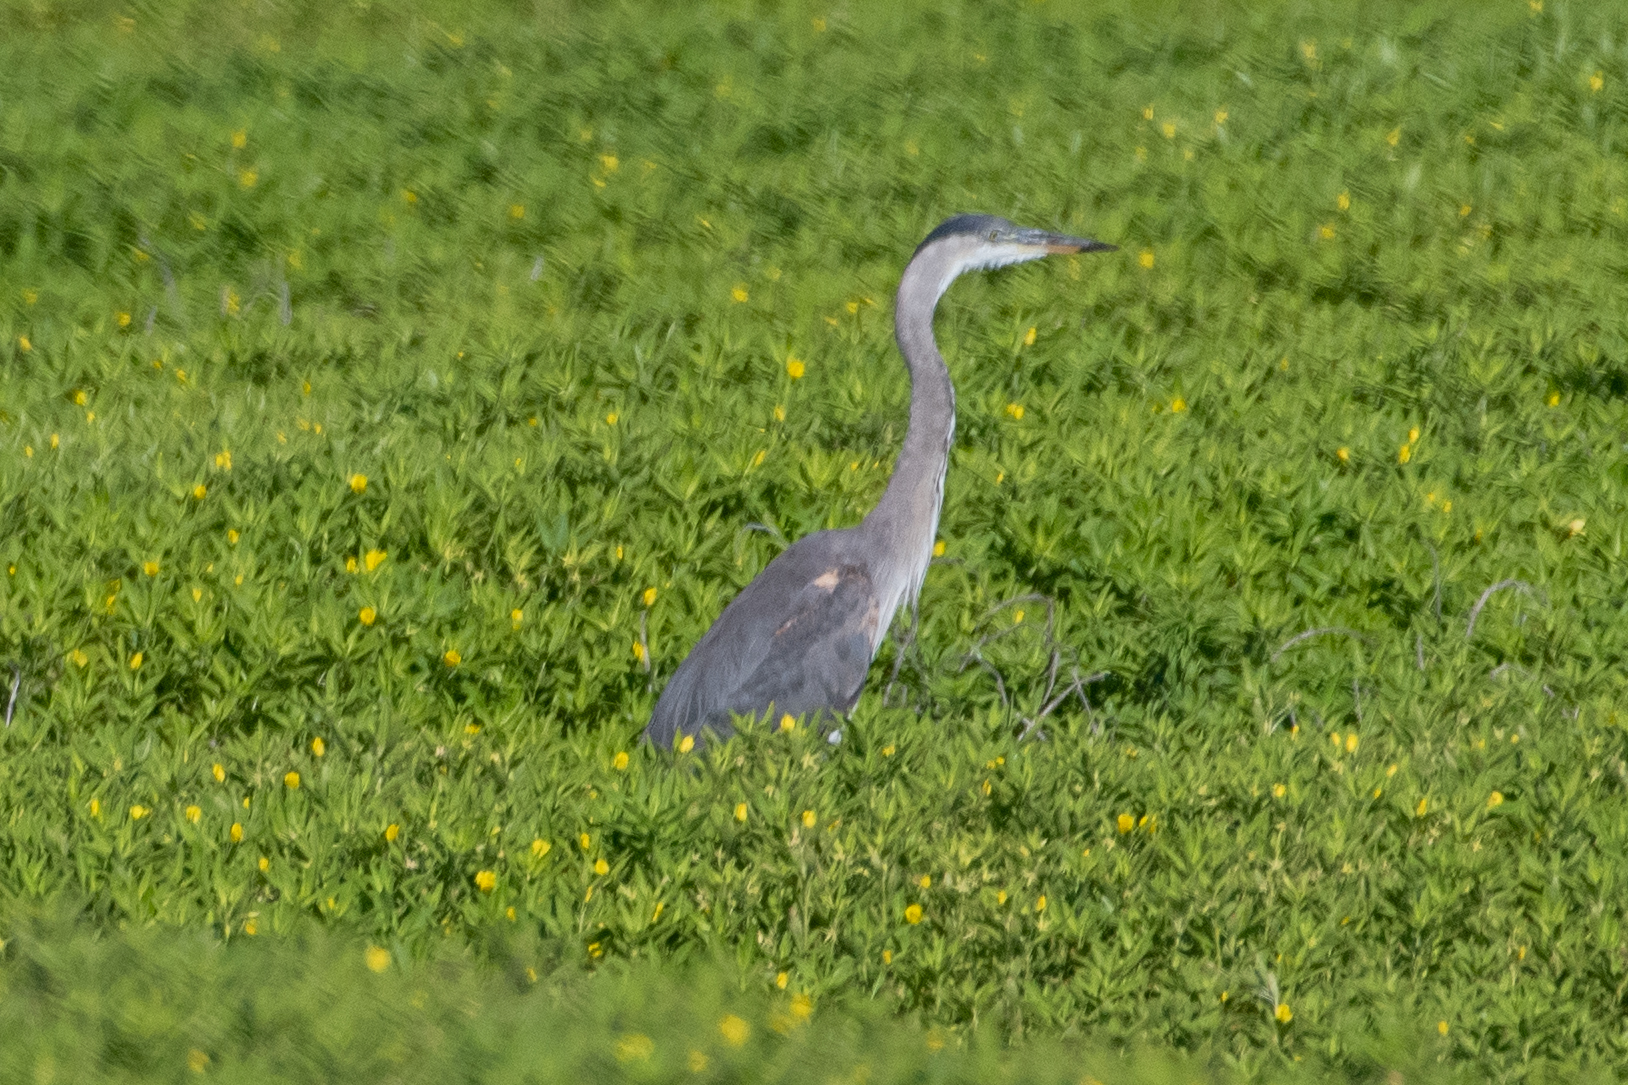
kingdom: Animalia
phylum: Chordata
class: Aves
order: Pelecaniformes
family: Ardeidae
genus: Ardea
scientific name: Ardea herodias
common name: Great blue heron
